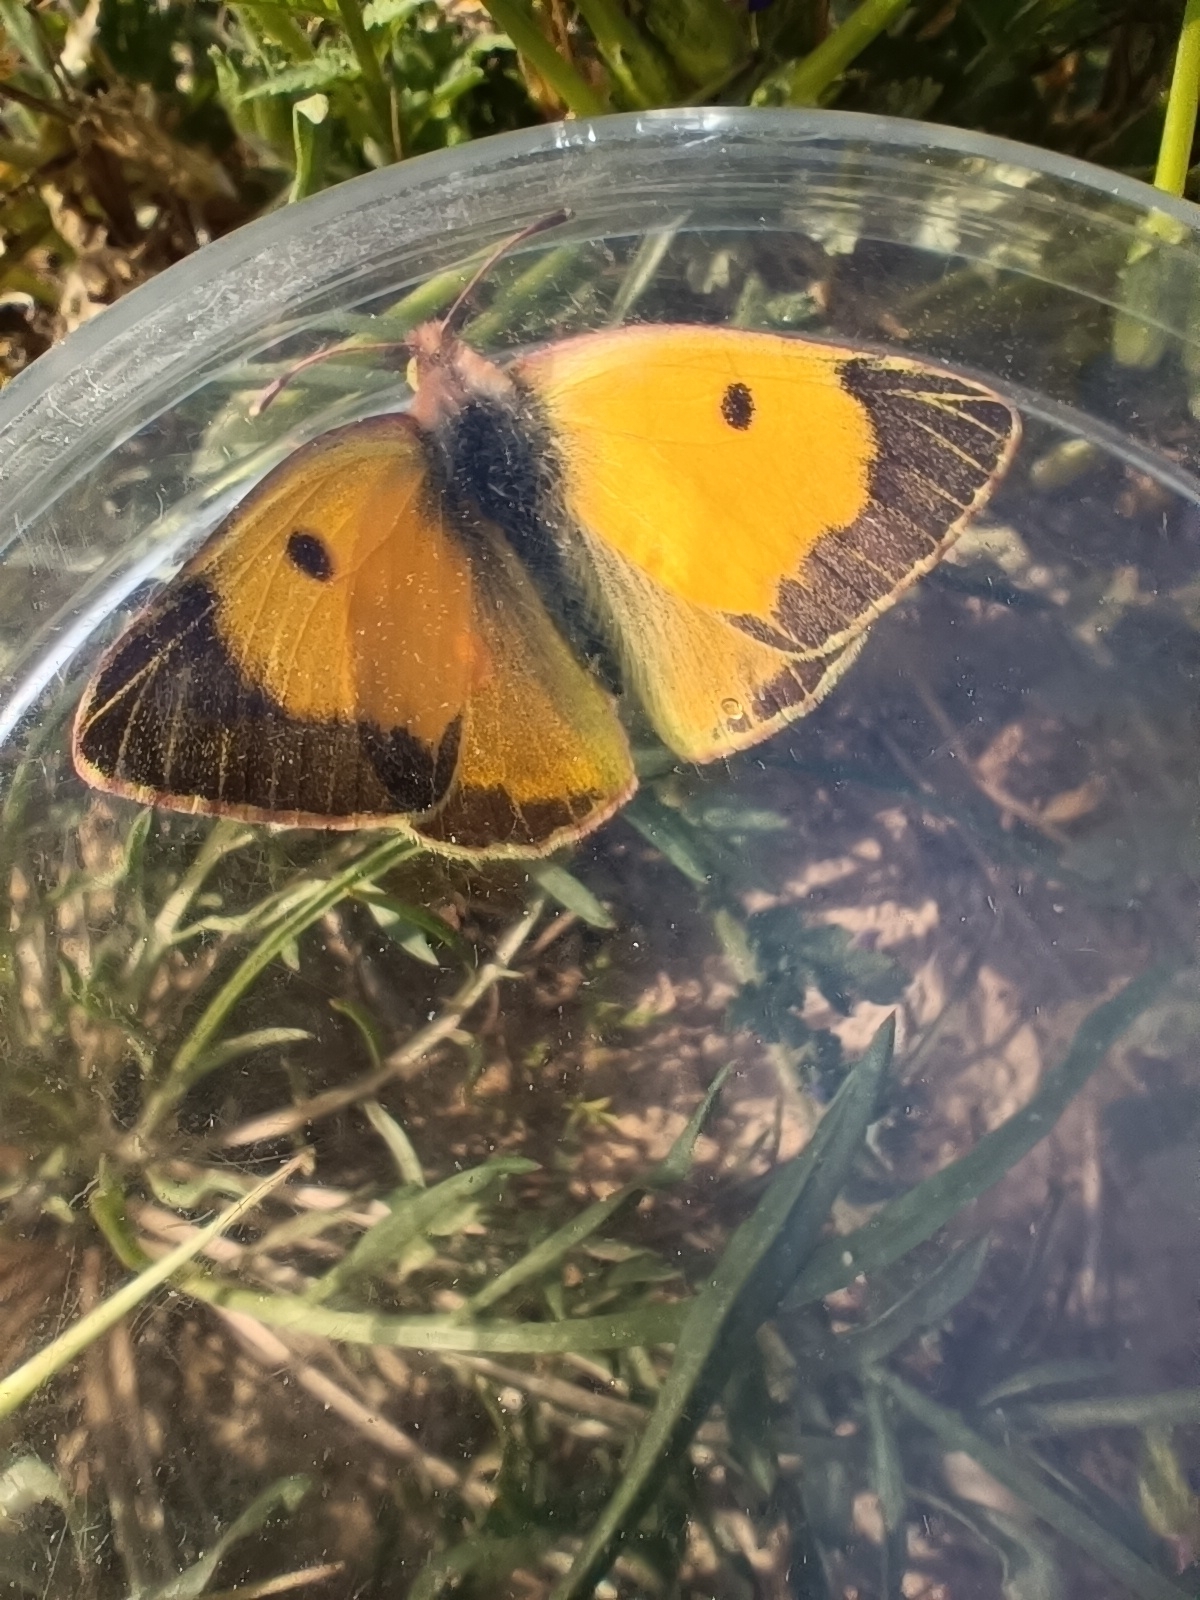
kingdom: Animalia
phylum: Arthropoda
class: Insecta
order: Lepidoptera
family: Pieridae
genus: Colias
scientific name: Colias croceus
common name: Clouded yellow
